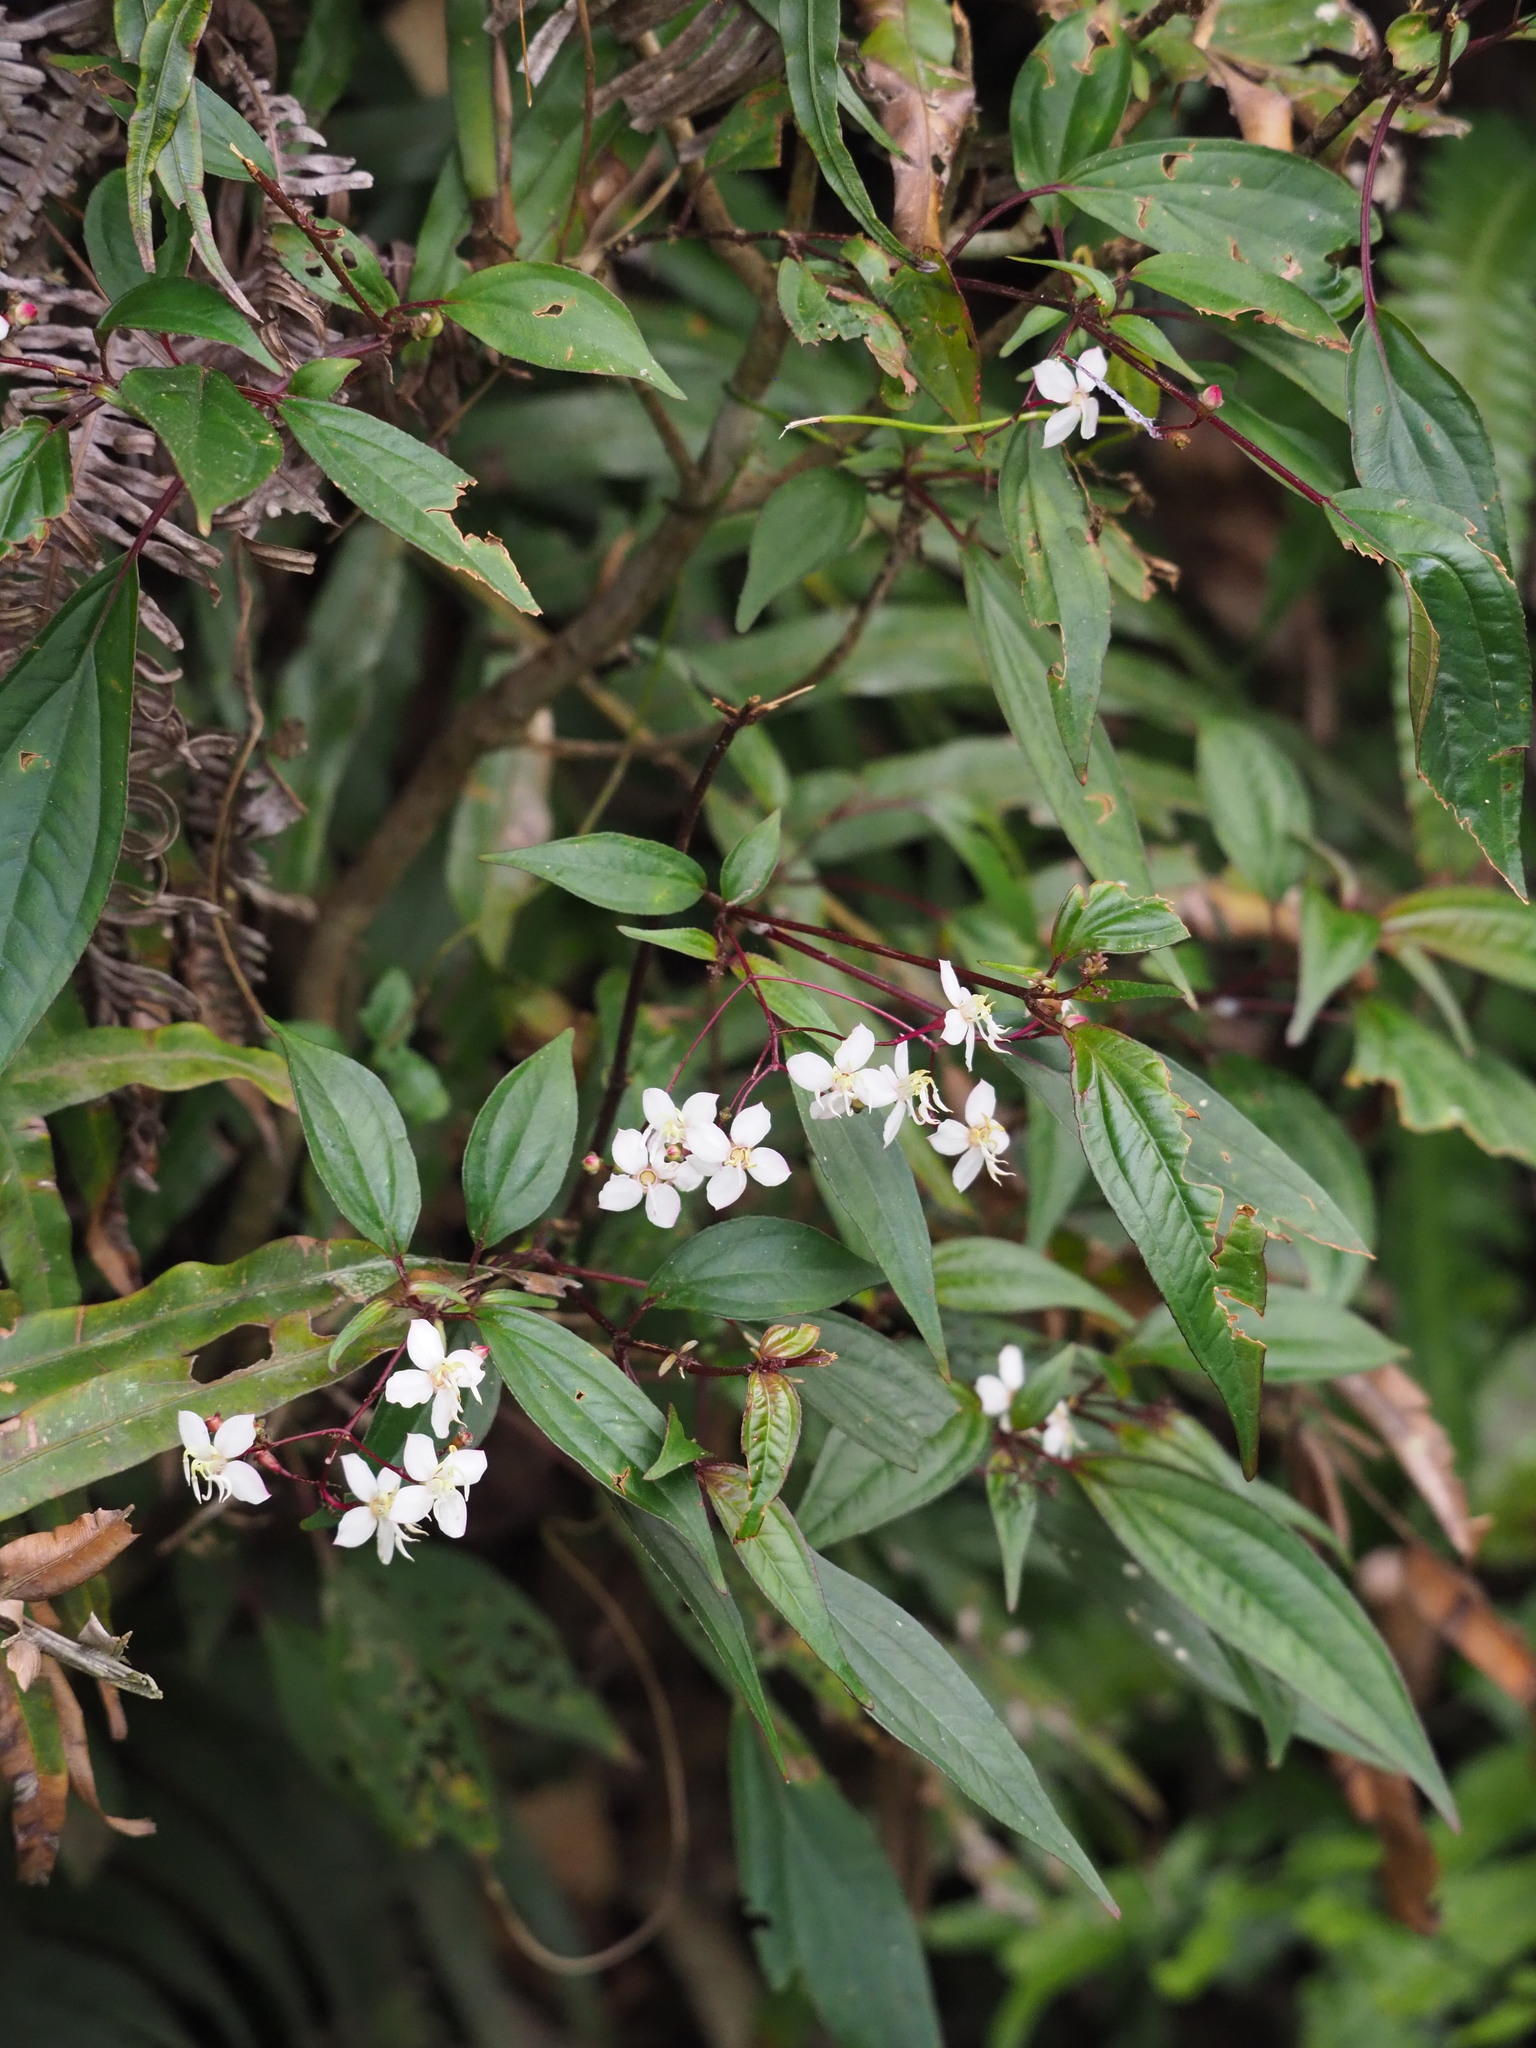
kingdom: Plantae
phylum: Tracheophyta
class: Magnoliopsida
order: Myrtales
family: Melastomataceae
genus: Bredia
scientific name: Bredia oldhamii
